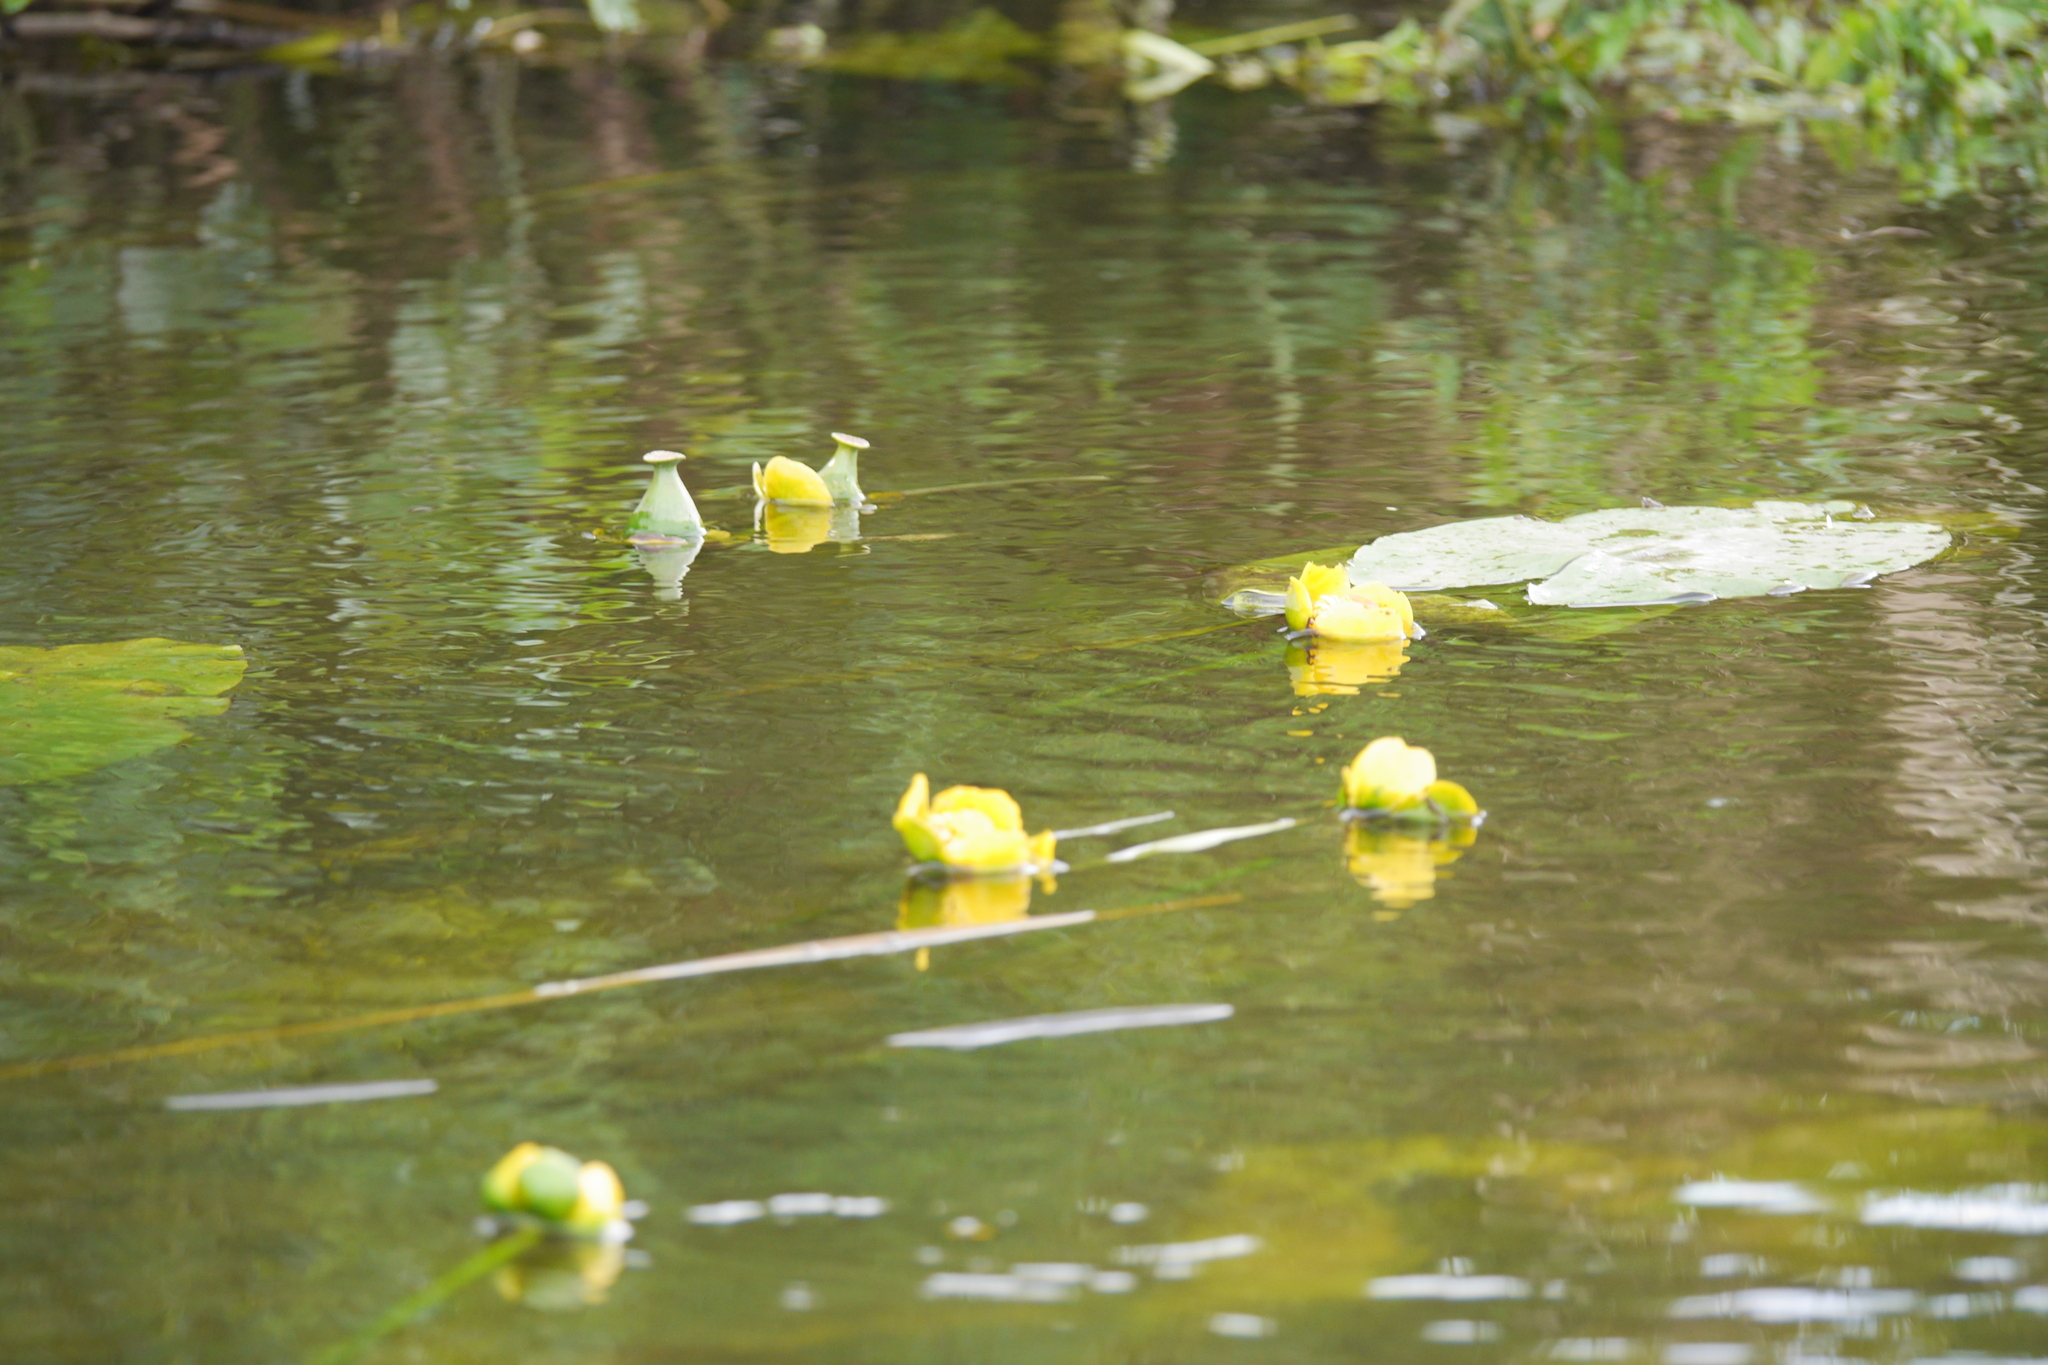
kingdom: Plantae
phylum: Tracheophyta
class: Magnoliopsida
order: Nymphaeales
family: Nymphaeaceae
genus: Nuphar
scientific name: Nuphar lutea
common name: Yellow water-lily
